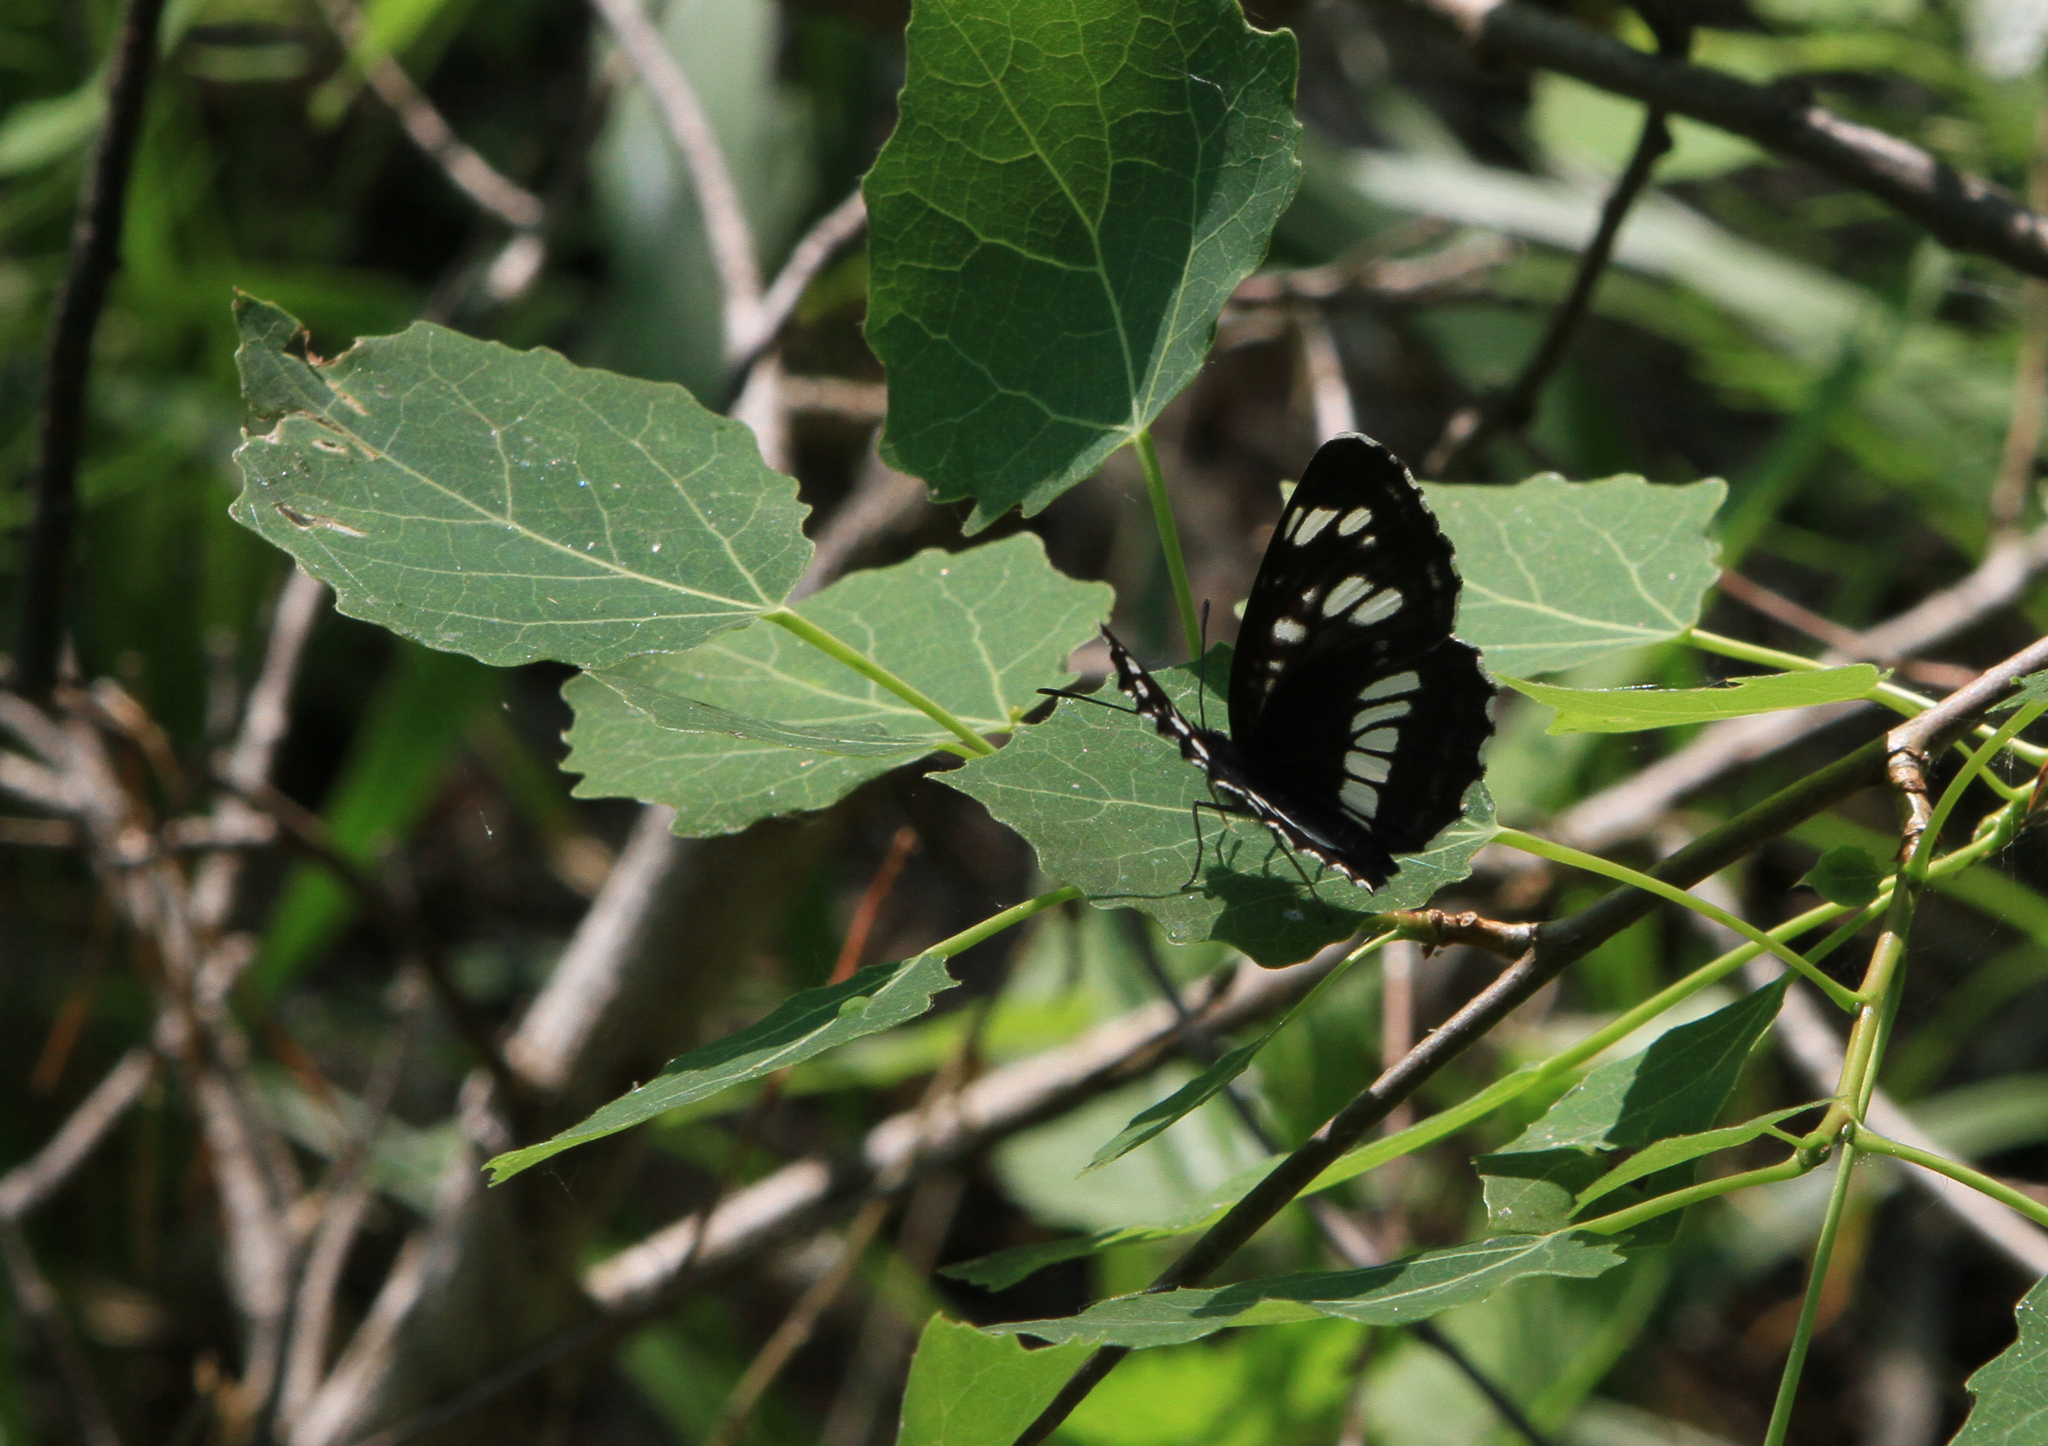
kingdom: Animalia
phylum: Arthropoda
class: Insecta
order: Lepidoptera
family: Nymphalidae
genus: Neptis
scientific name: Neptis rivularis
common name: Hungarian glider
